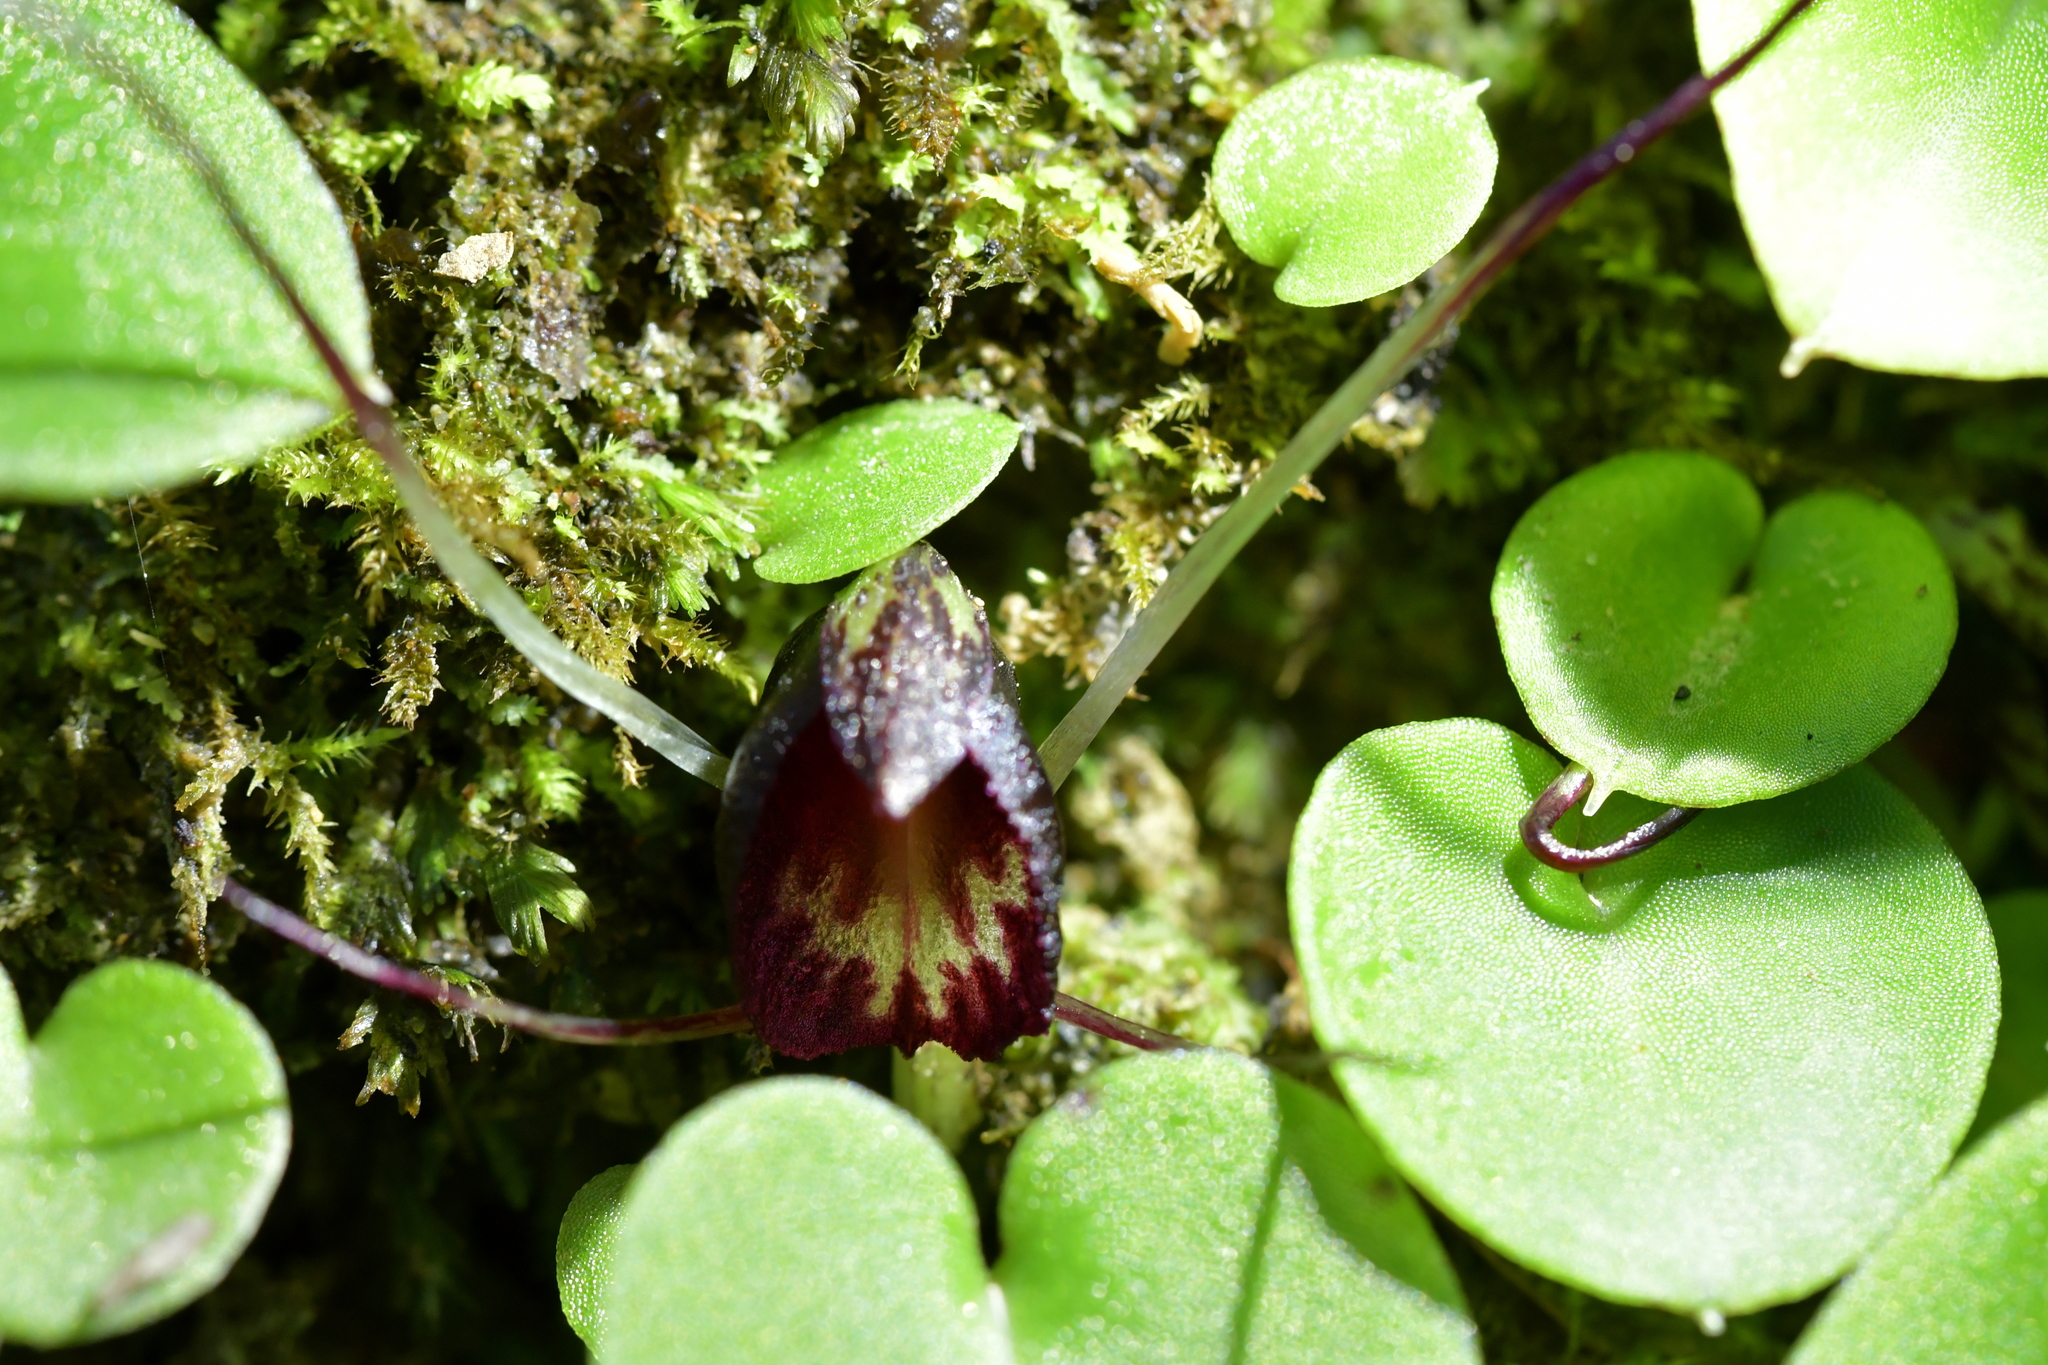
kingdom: Plantae
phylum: Tracheophyta
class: Liliopsida
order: Asparagales
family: Orchidaceae
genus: Corybas
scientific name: Corybas macranthus
